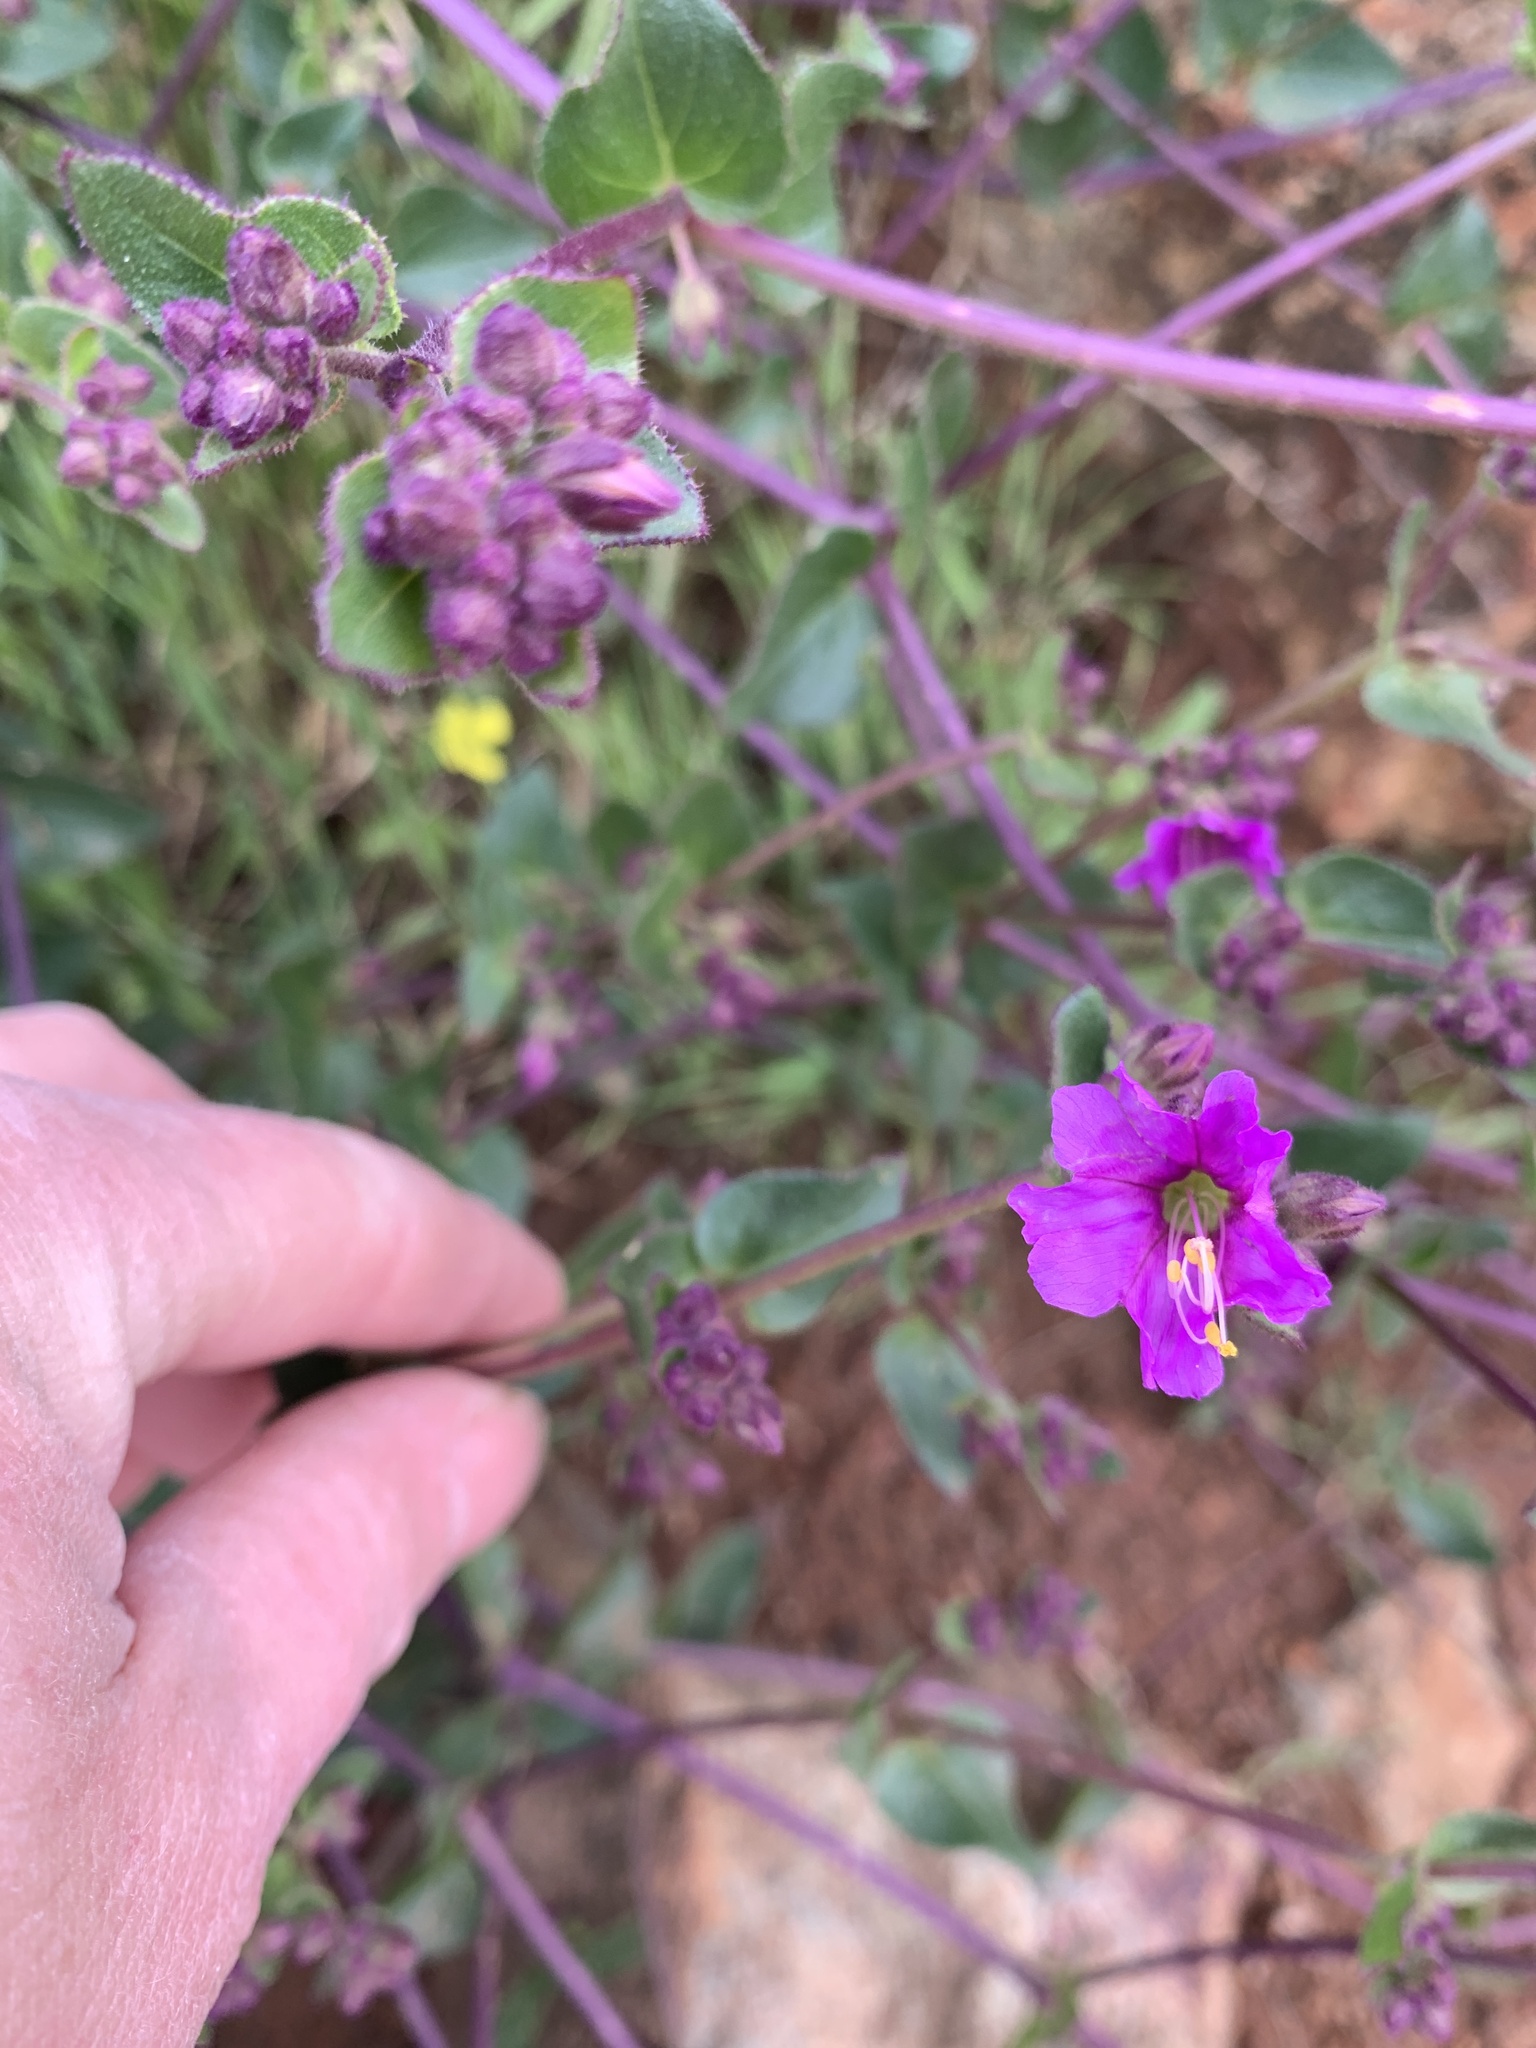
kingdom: Plantae
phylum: Tracheophyta
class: Magnoliopsida
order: Caryophyllales
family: Nyctaginaceae
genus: Mirabilis
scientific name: Mirabilis laevis
